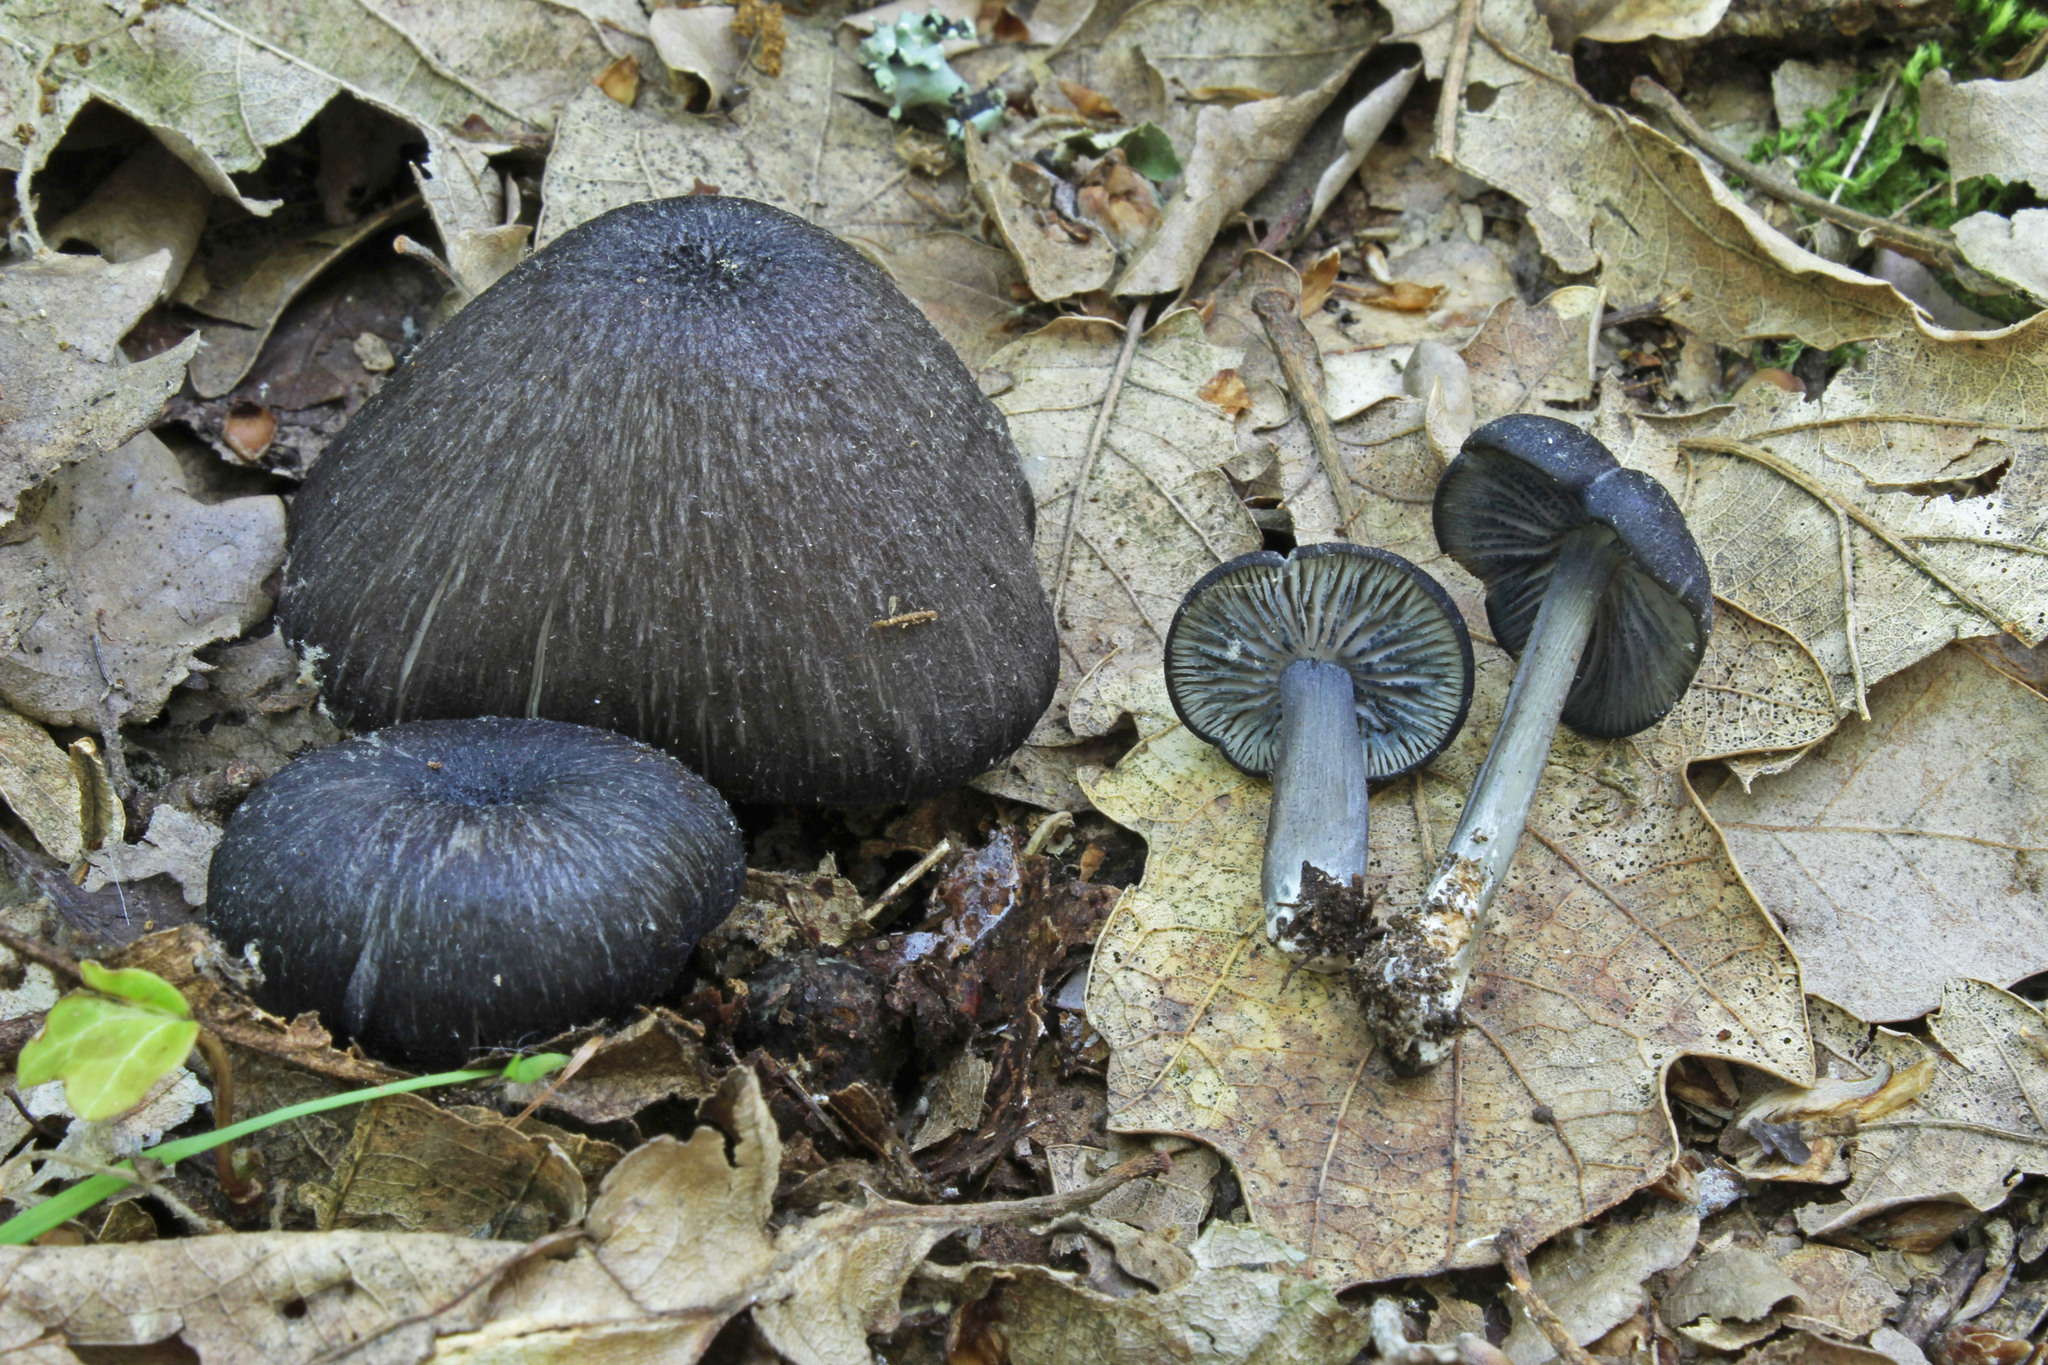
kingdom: Fungi
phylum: Basidiomycota
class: Agaricomycetes
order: Agaricales
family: Entolomataceae
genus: Entoloma
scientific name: Entoloma querquedula
